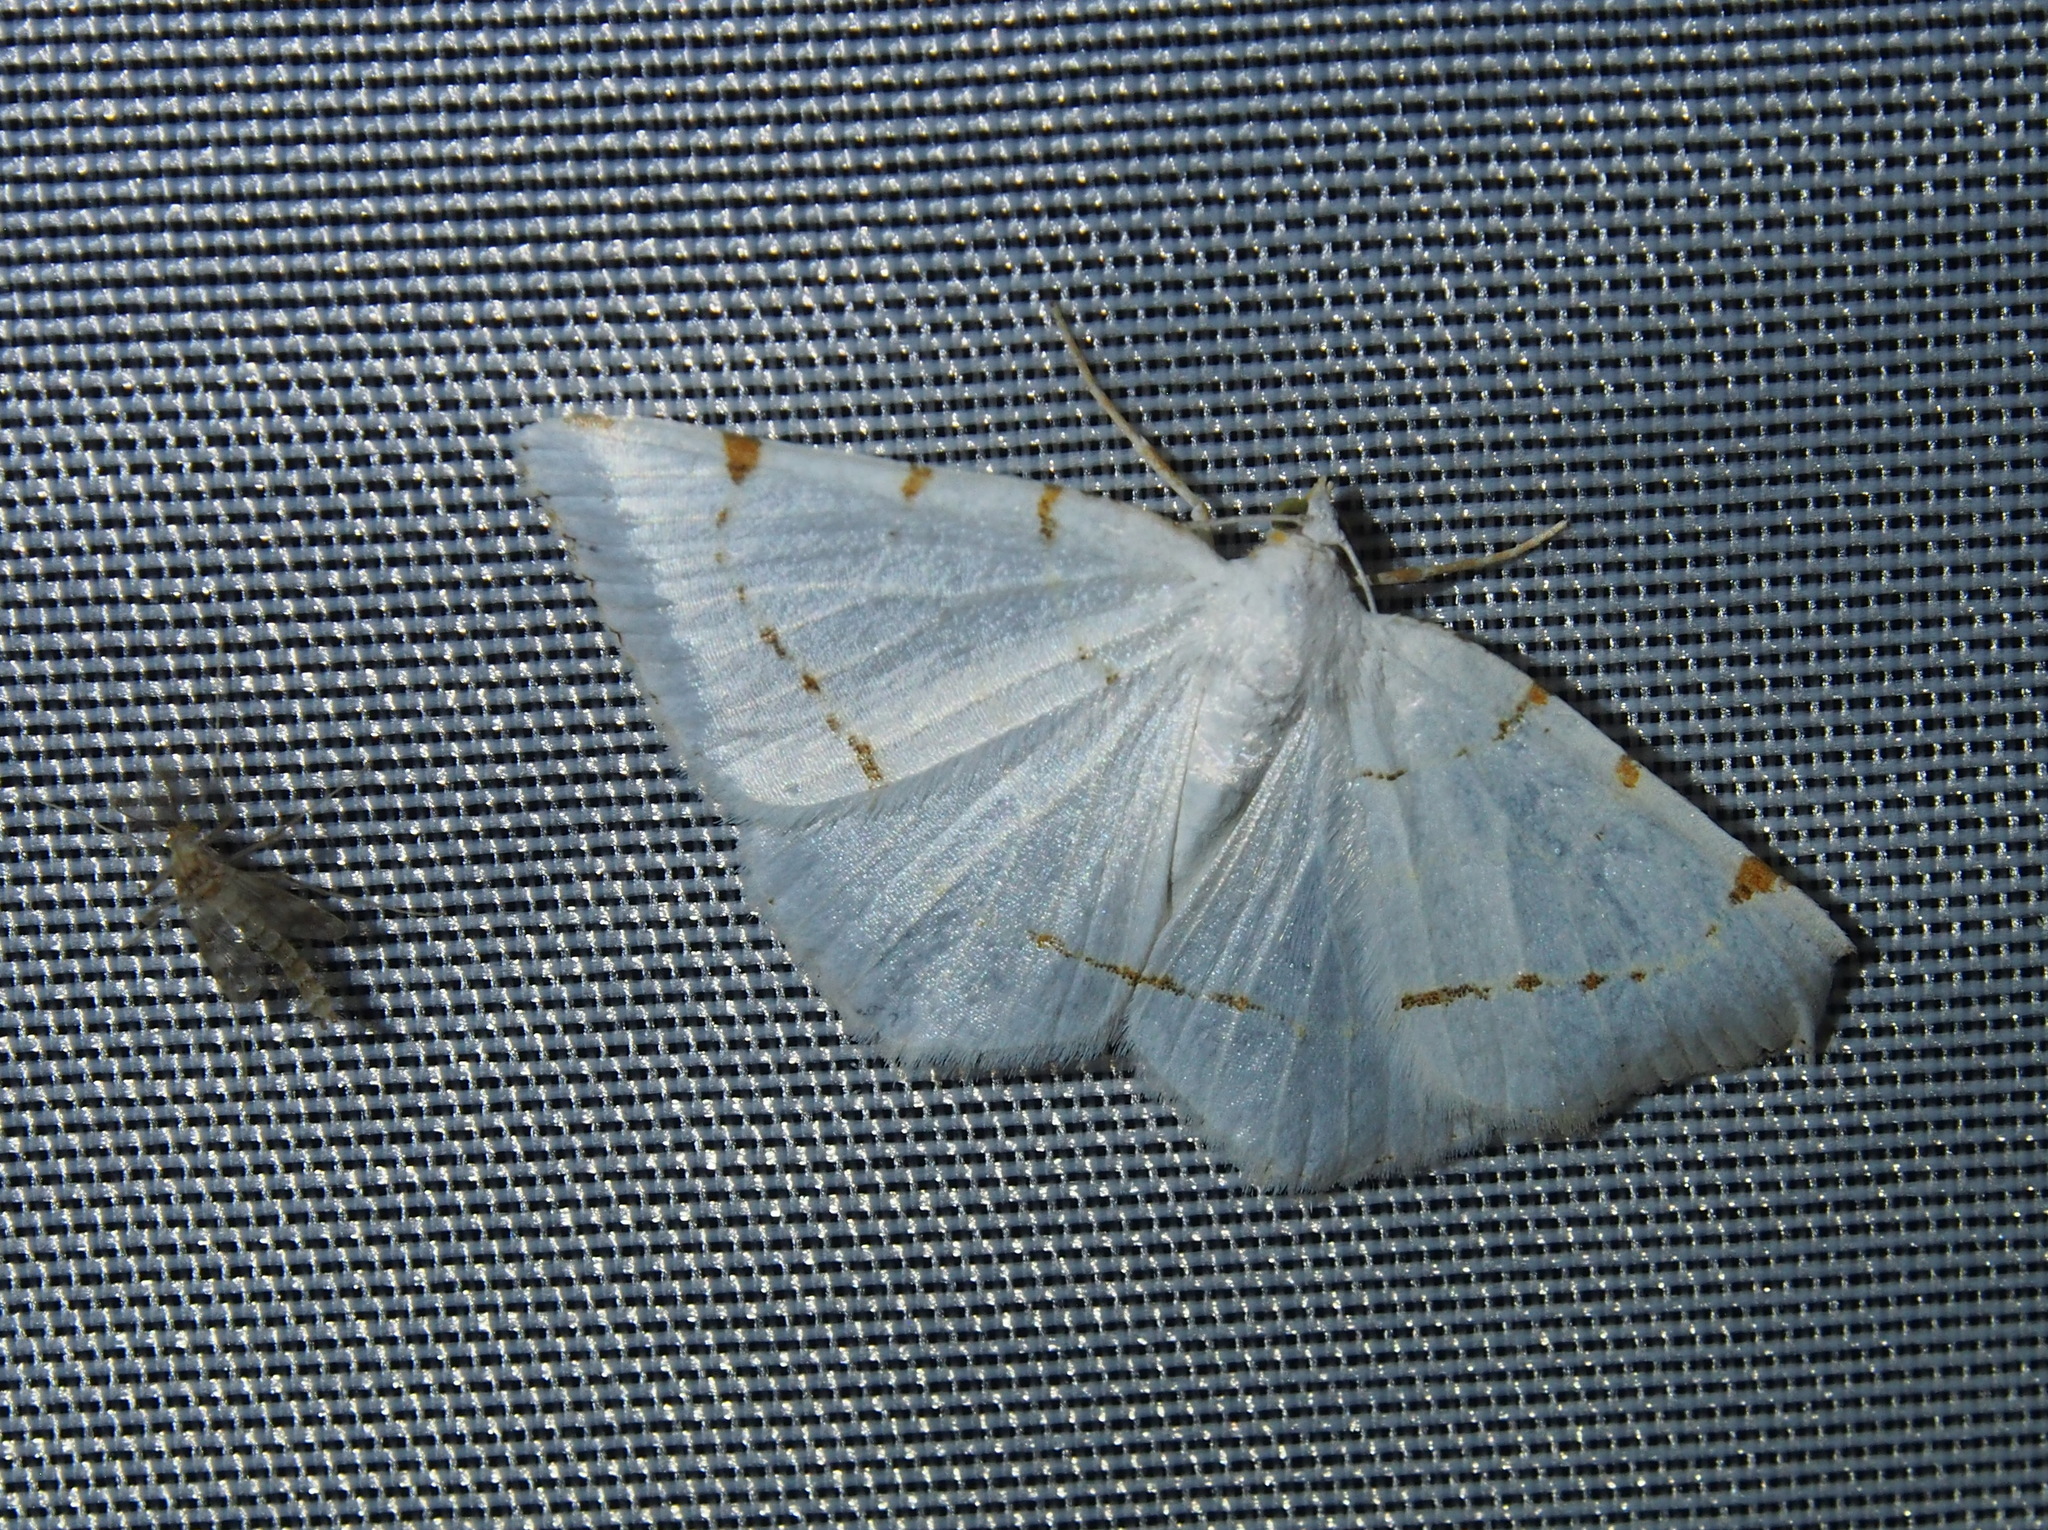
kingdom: Animalia
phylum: Arthropoda
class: Insecta
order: Lepidoptera
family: Geometridae
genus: Macaria
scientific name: Macaria pustularia
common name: Lesser maple spanworm moth
